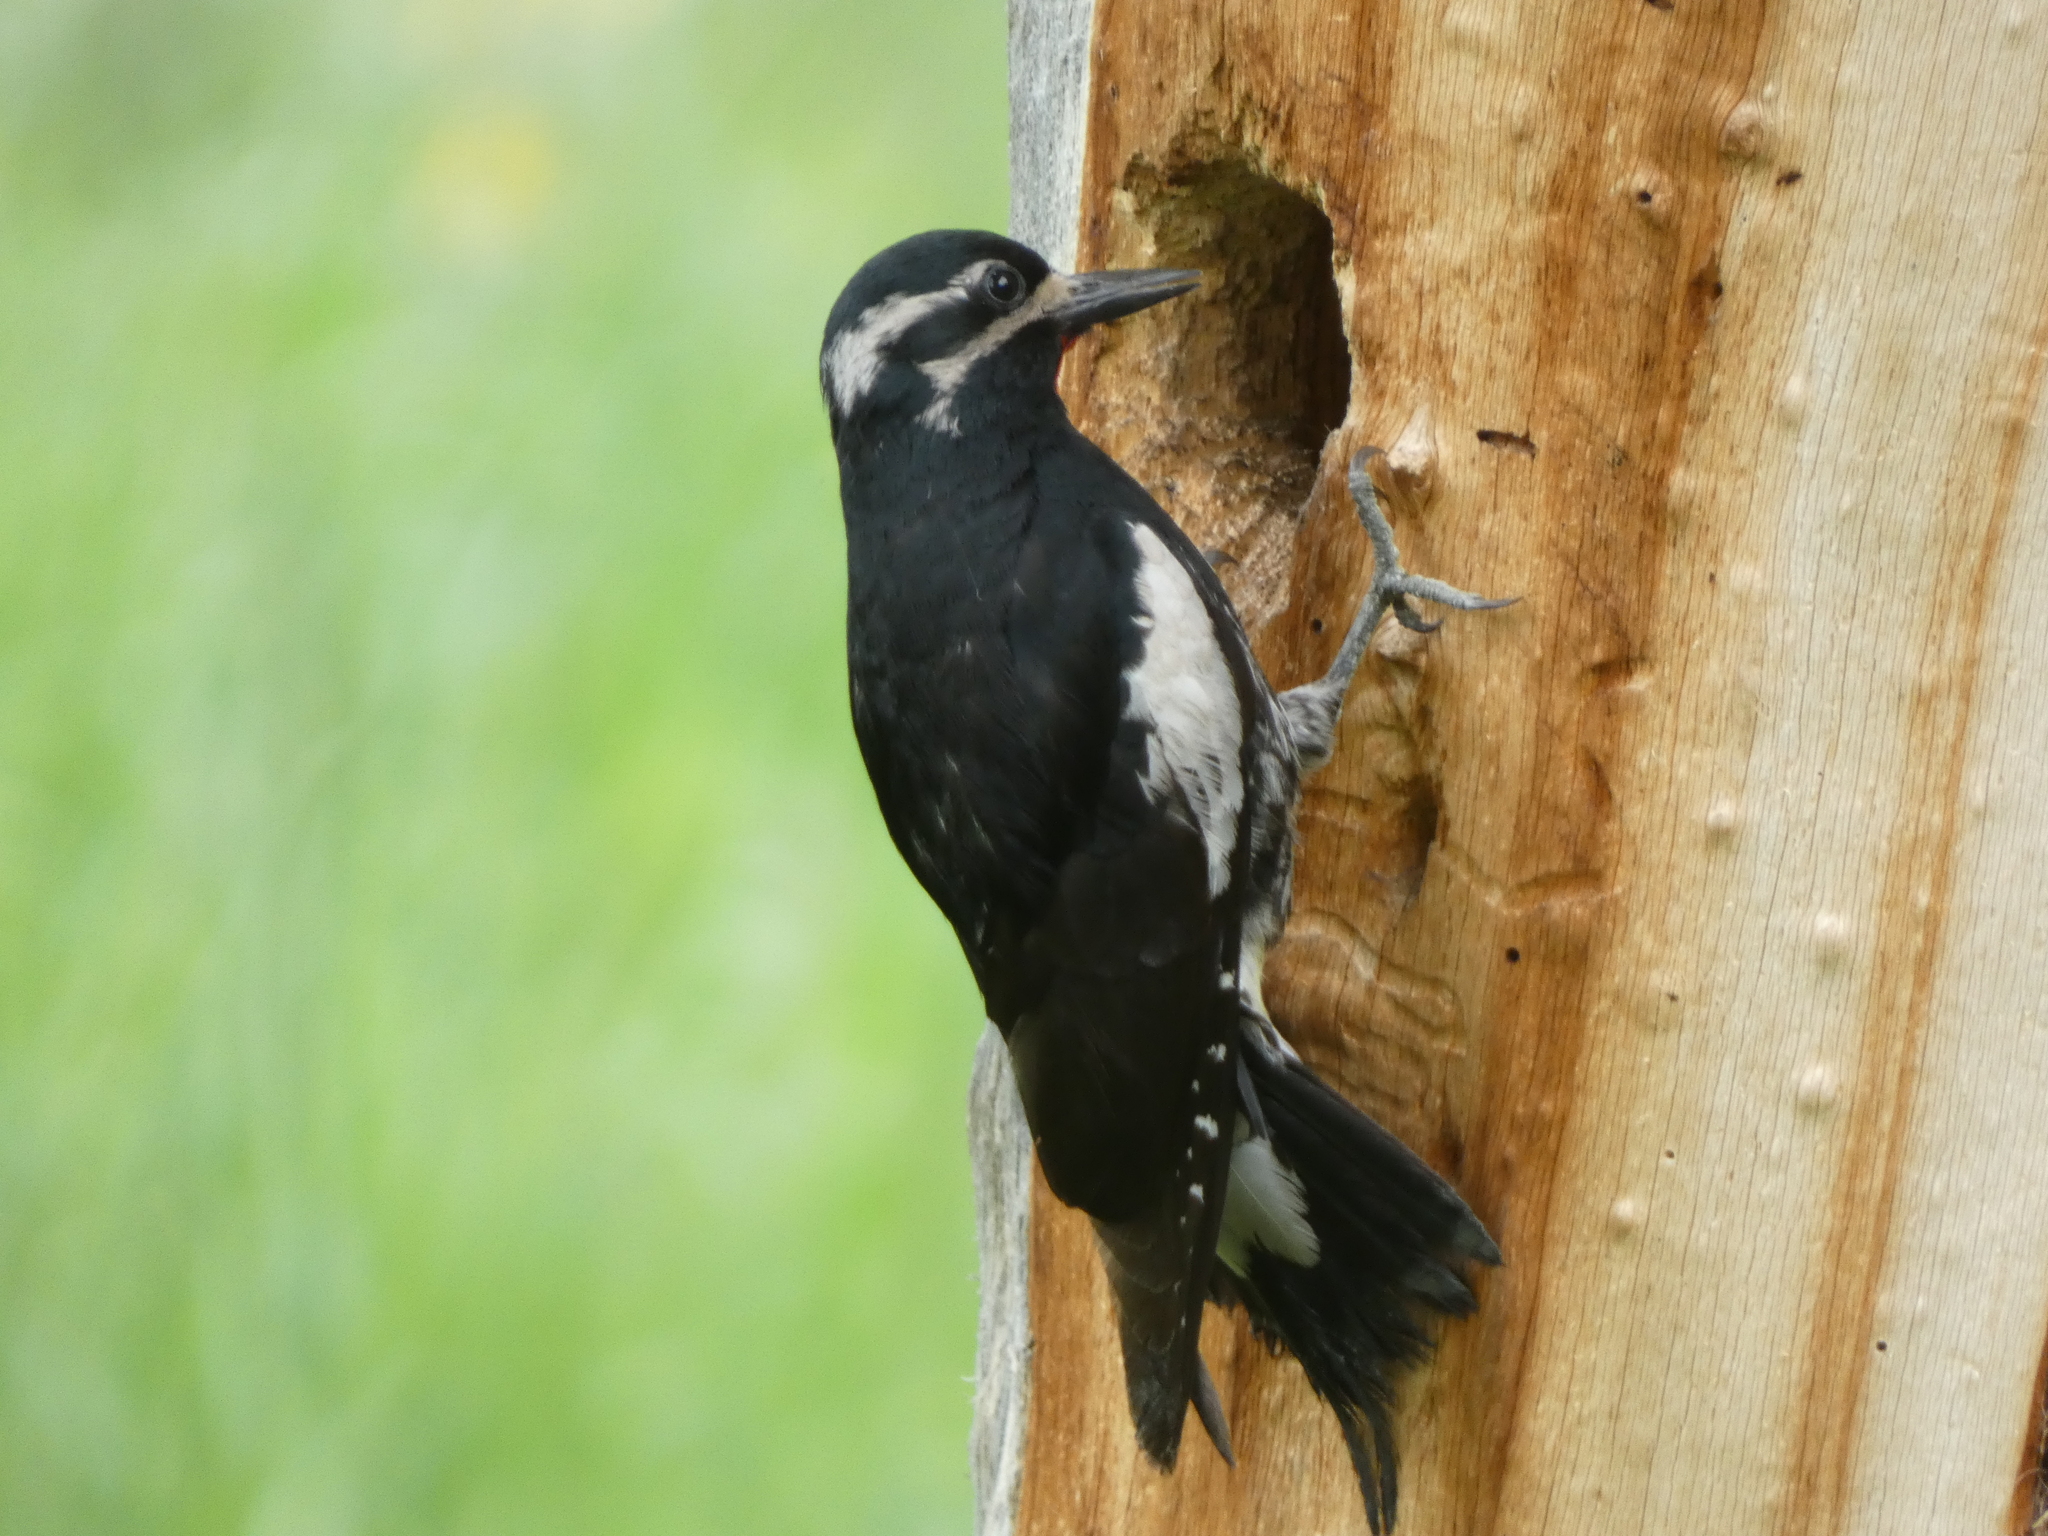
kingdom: Animalia
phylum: Chordata
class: Aves
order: Piciformes
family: Picidae
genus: Sphyrapicus
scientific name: Sphyrapicus thyroideus
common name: Williamson's sapsucker
